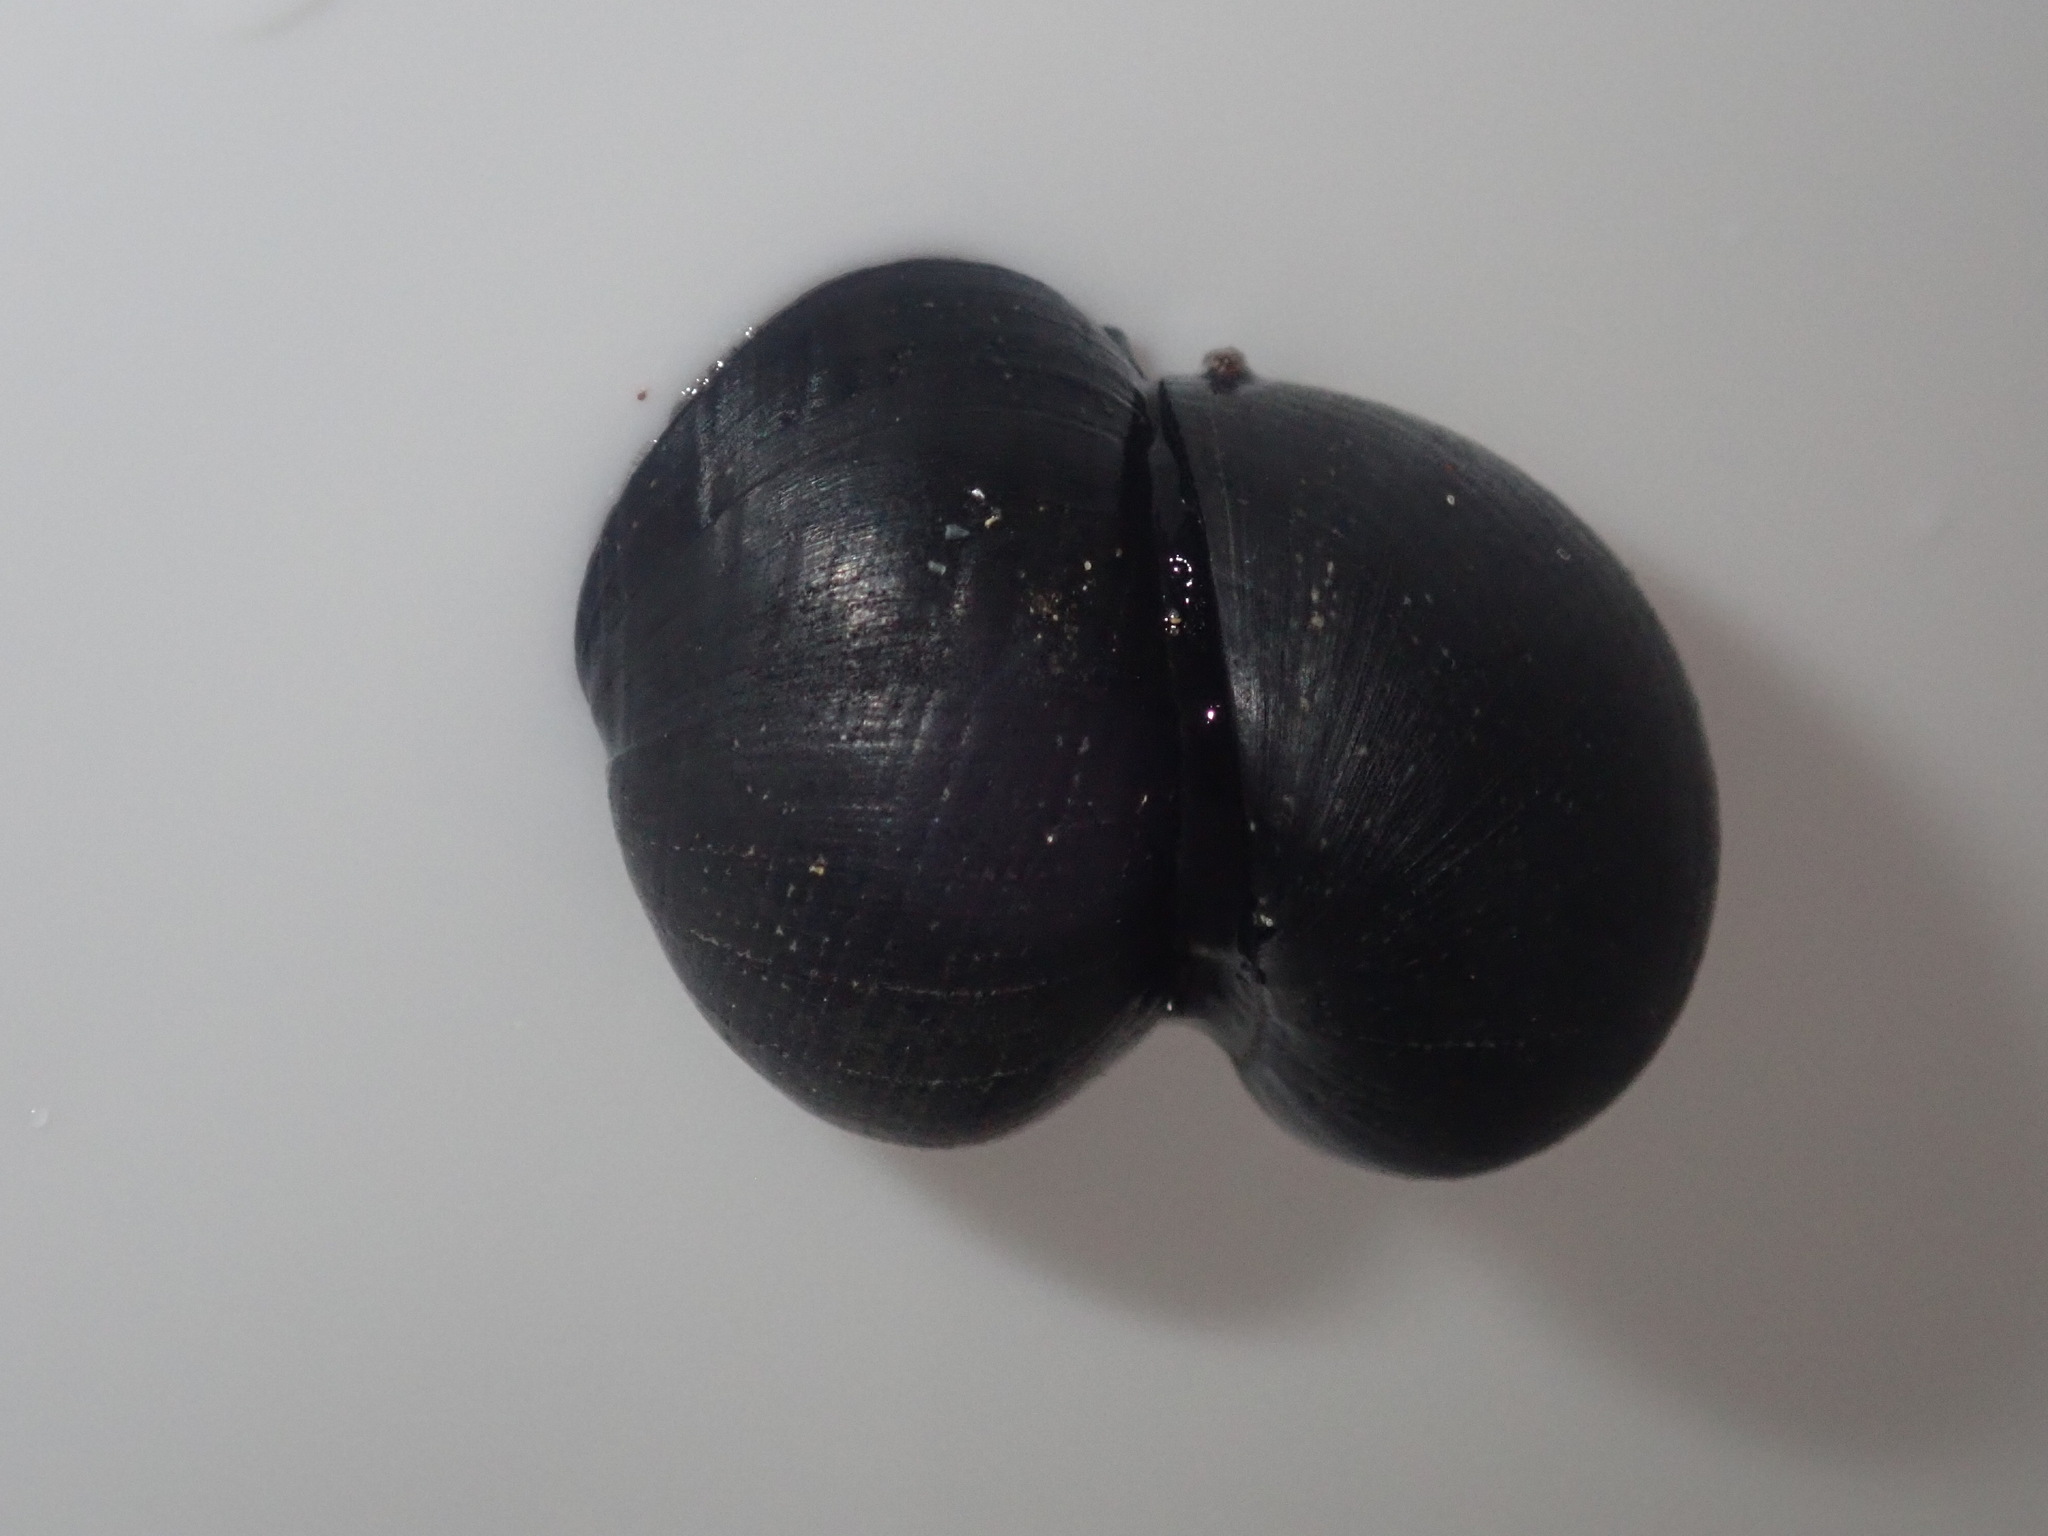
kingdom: Animalia
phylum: Mollusca
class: Gastropoda
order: Cycloneritida
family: Neritidae
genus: Nerita
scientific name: Nerita melanotragus
